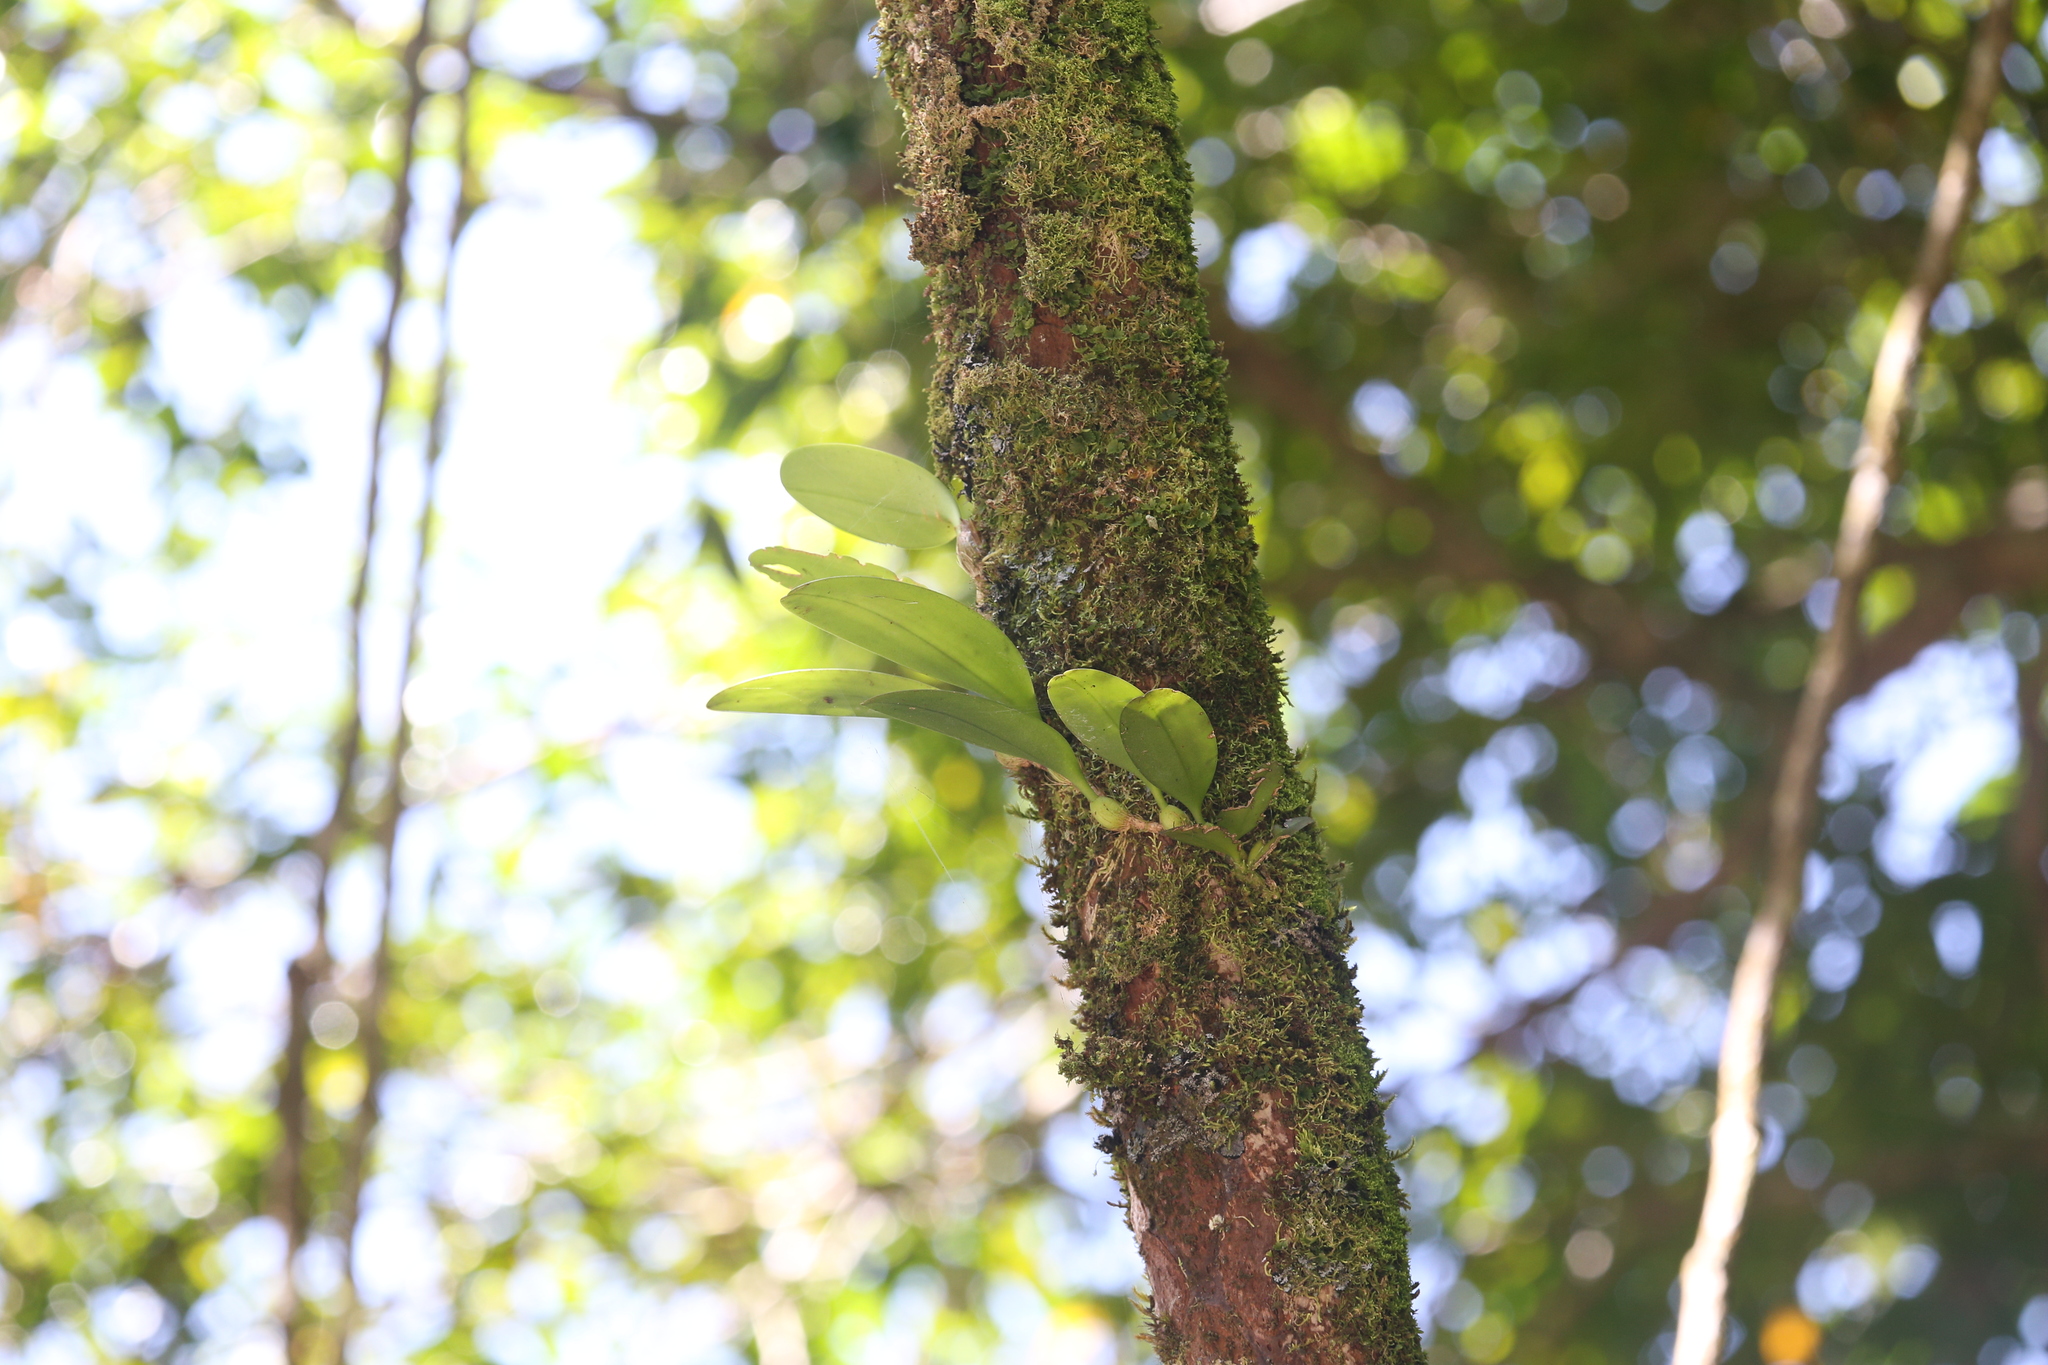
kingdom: Plantae
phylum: Tracheophyta
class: Liliopsida
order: Asparagales
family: Orchidaceae
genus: Bulbophyllum
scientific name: Bulbophyllum baileyi
